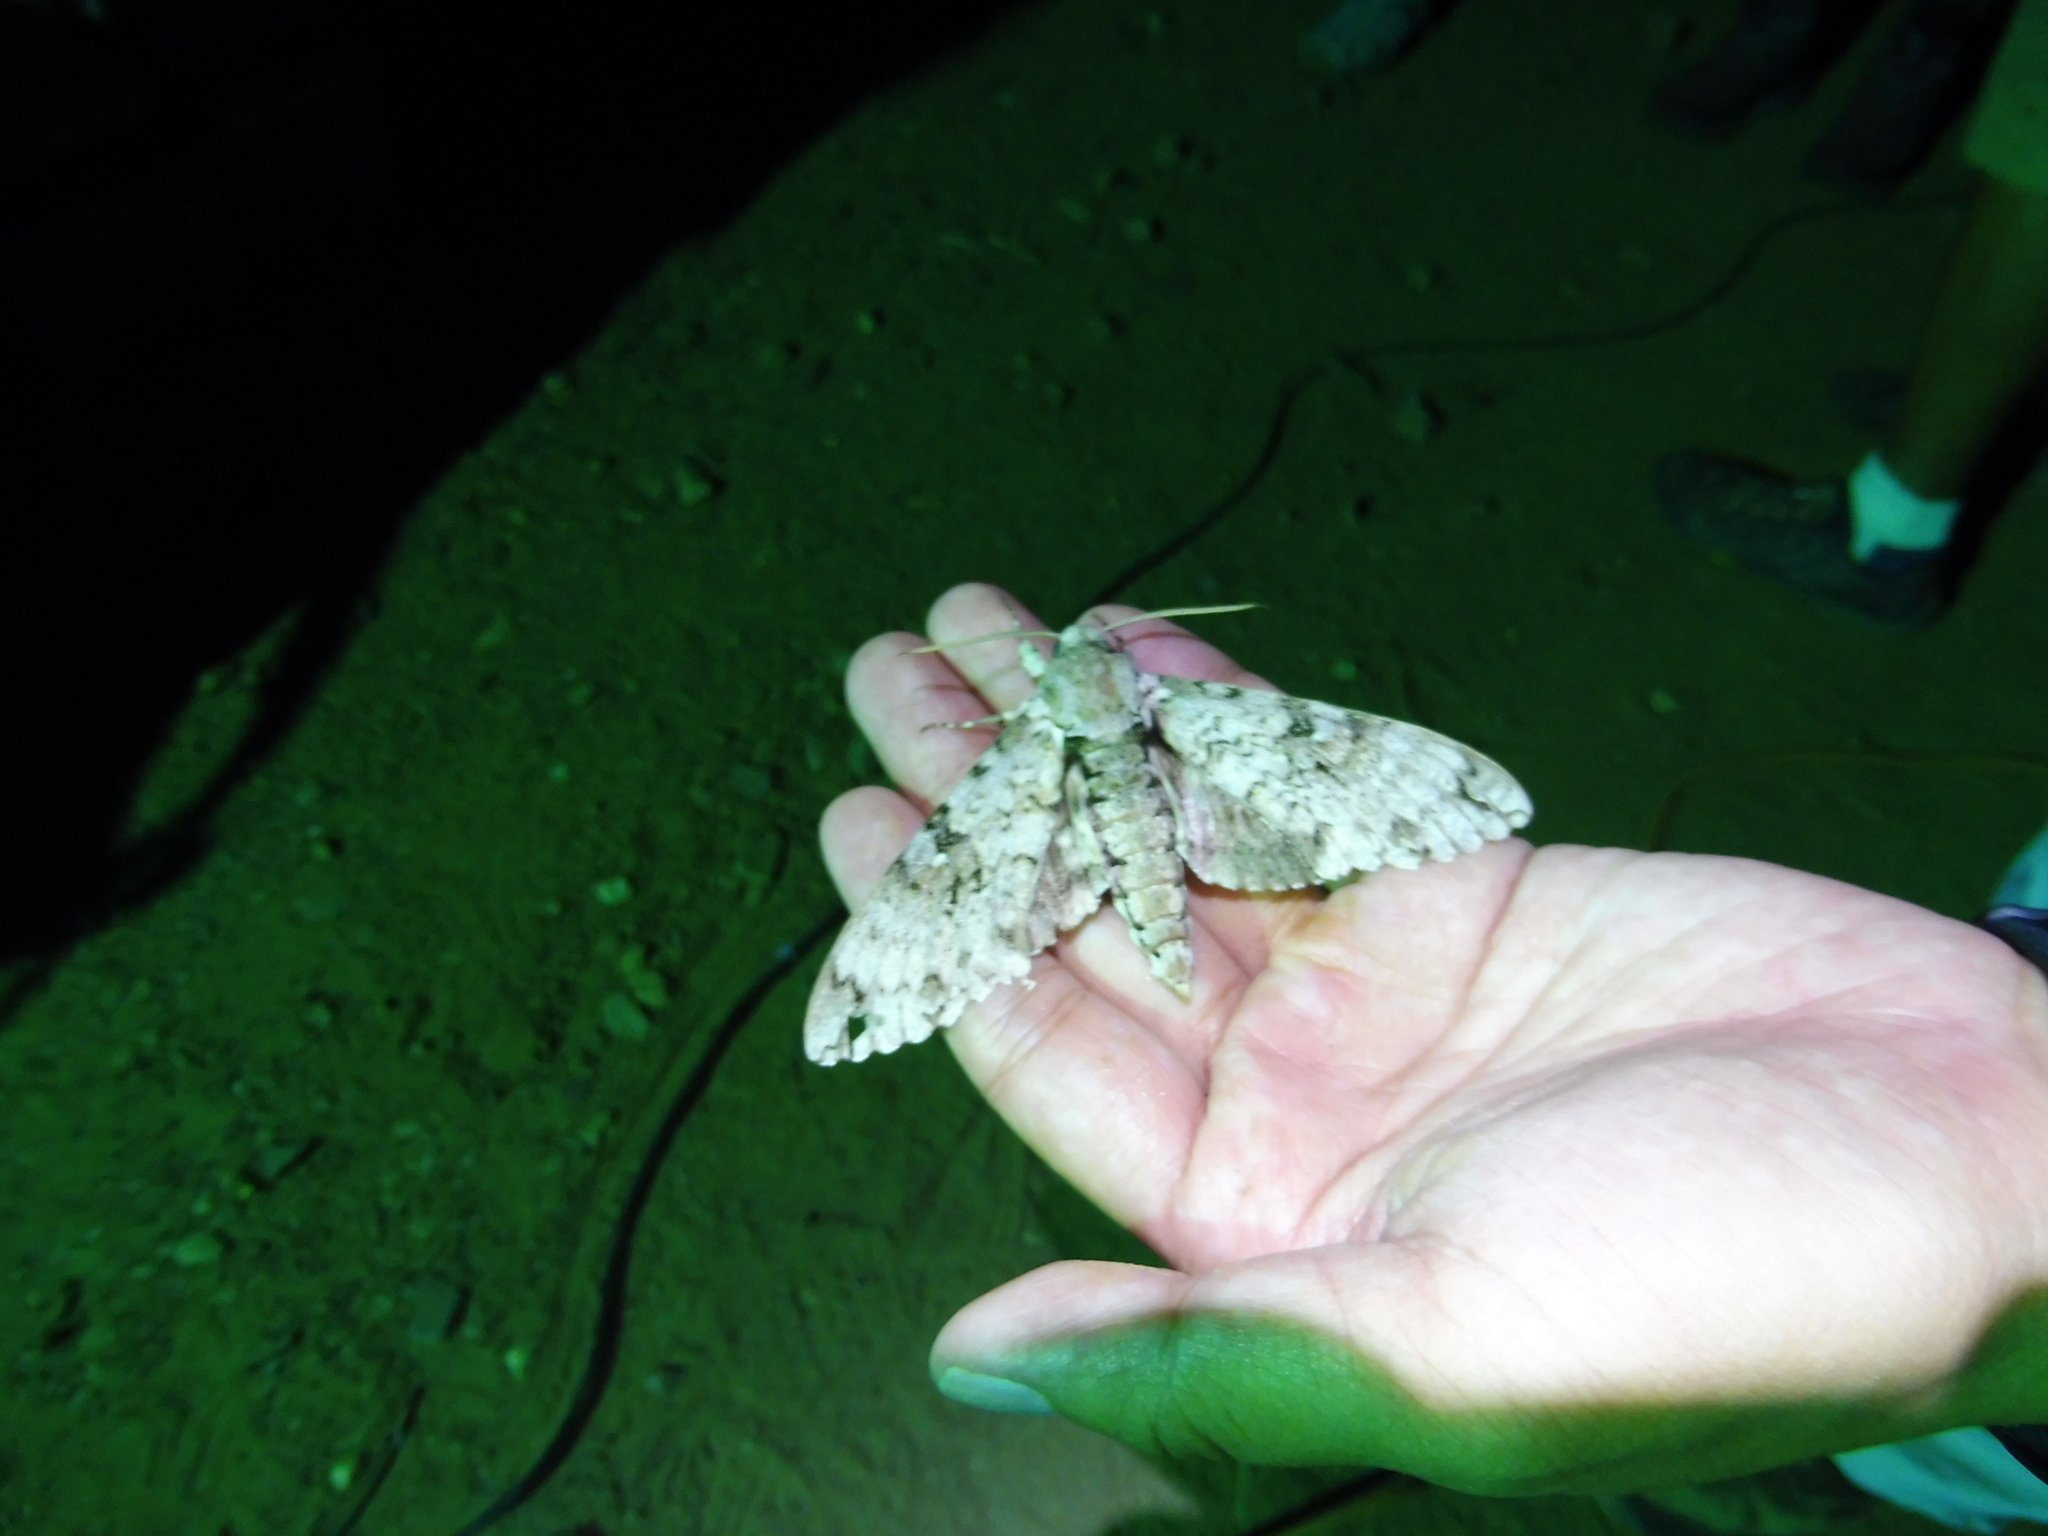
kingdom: Animalia
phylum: Arthropoda
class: Insecta
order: Lepidoptera
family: Sphingidae
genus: Manduca
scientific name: Manduca florestan
